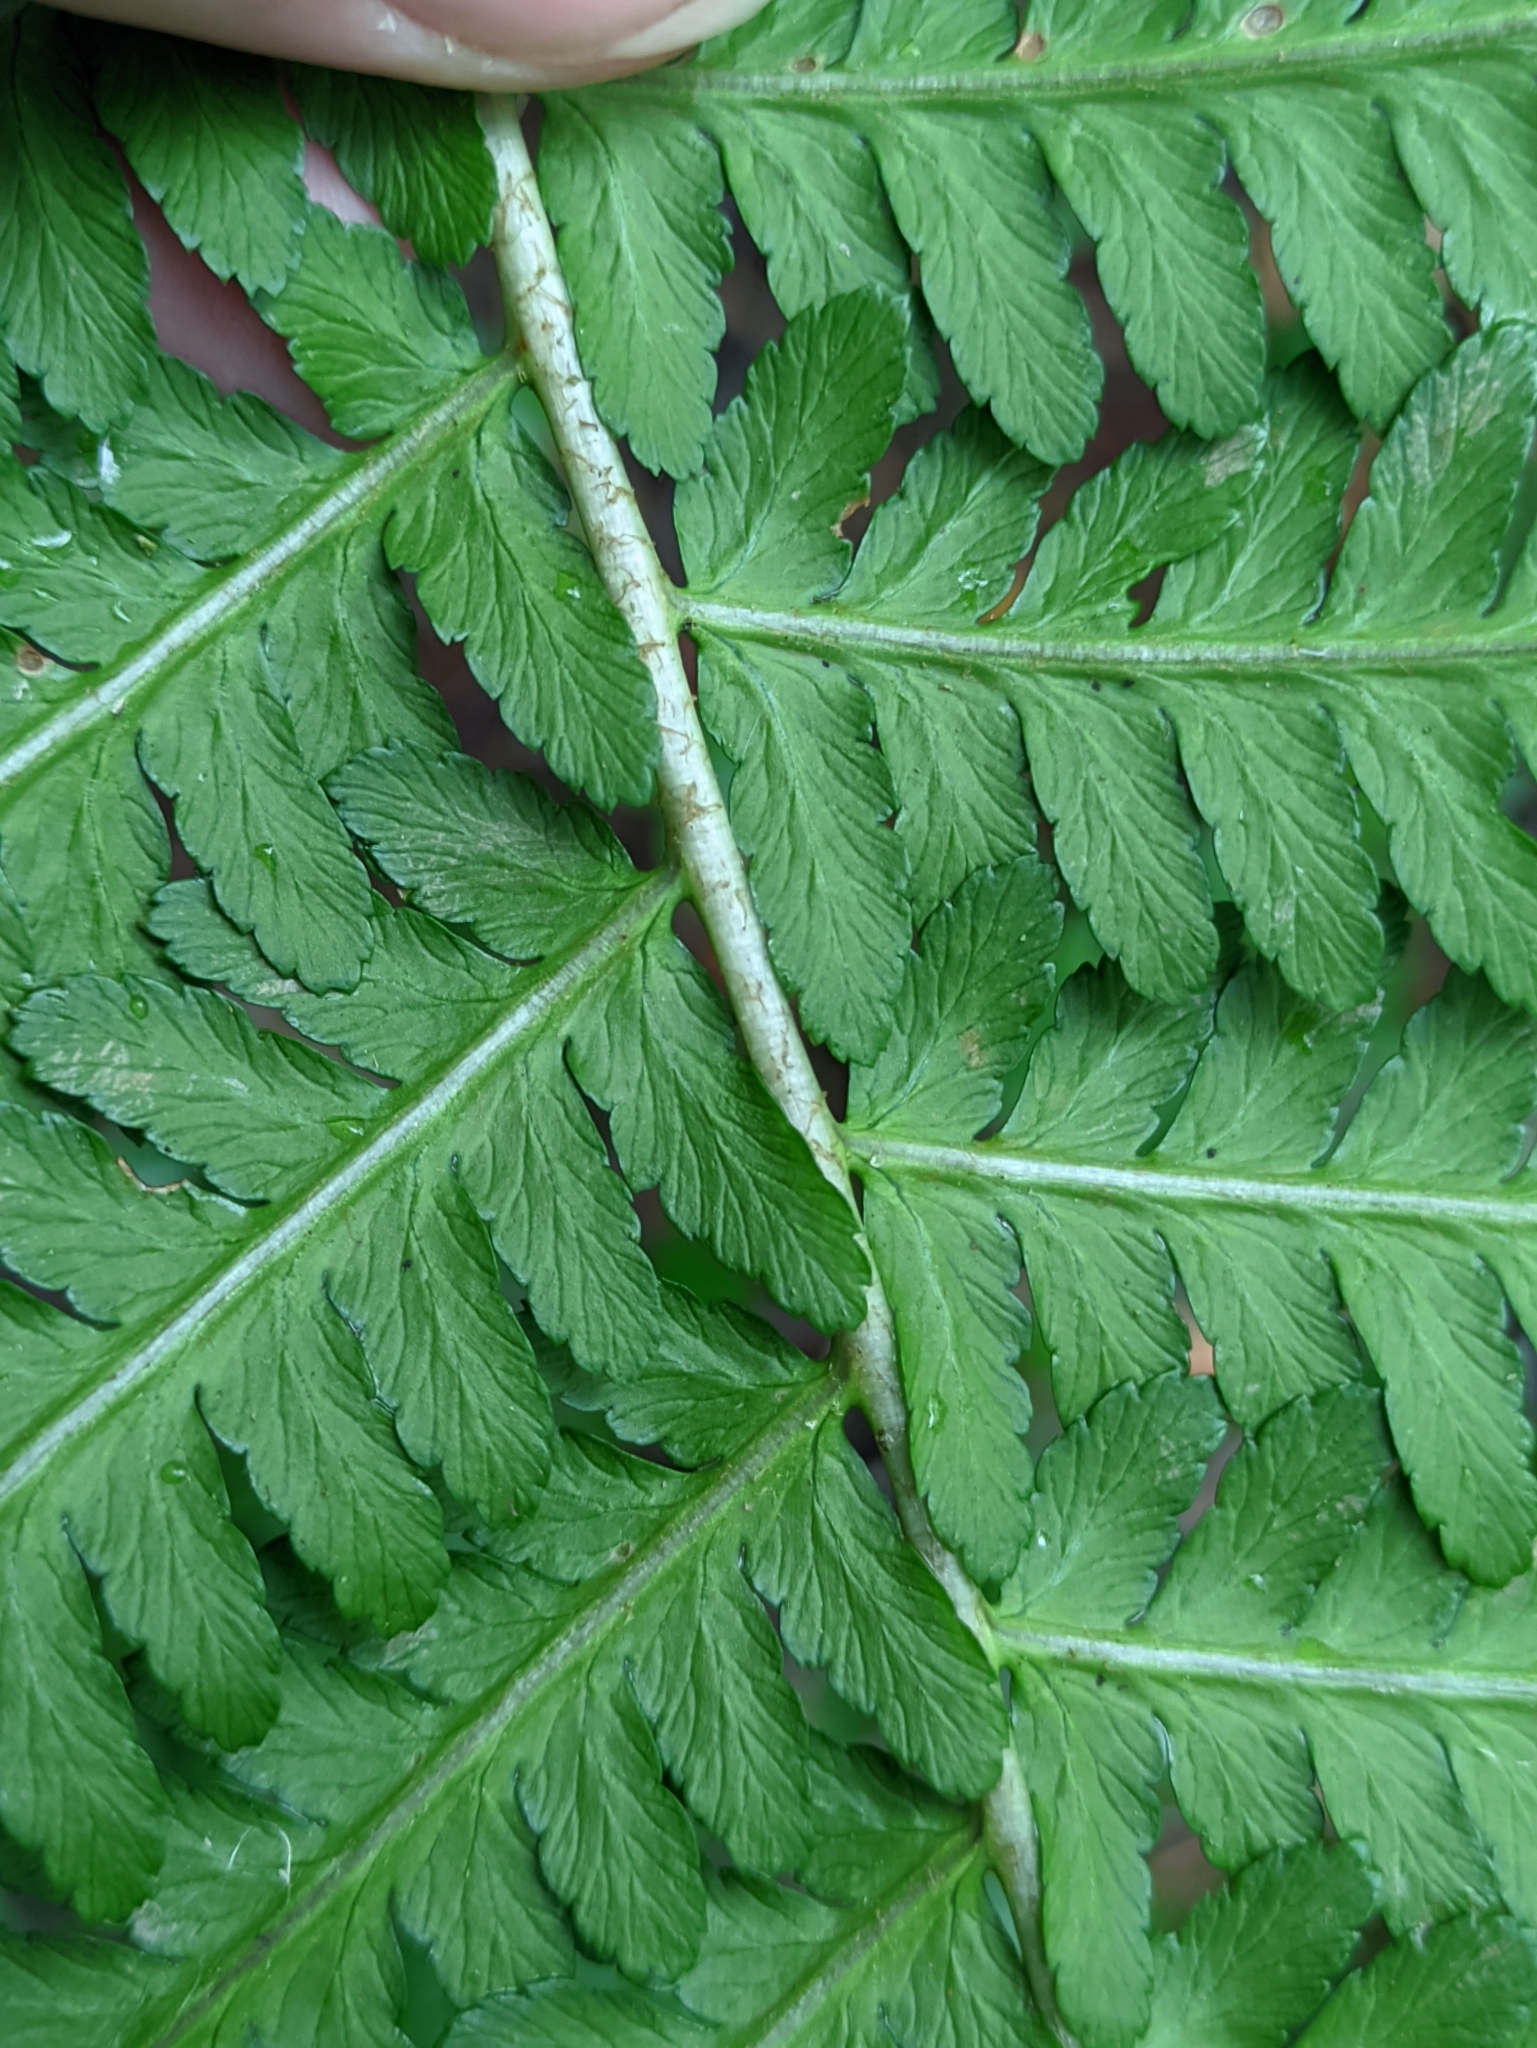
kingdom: Plantae
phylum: Tracheophyta
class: Polypodiopsida
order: Polypodiales
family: Dryopteridaceae
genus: Dryopteris
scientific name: Dryopteris filix-mas
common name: Male fern
